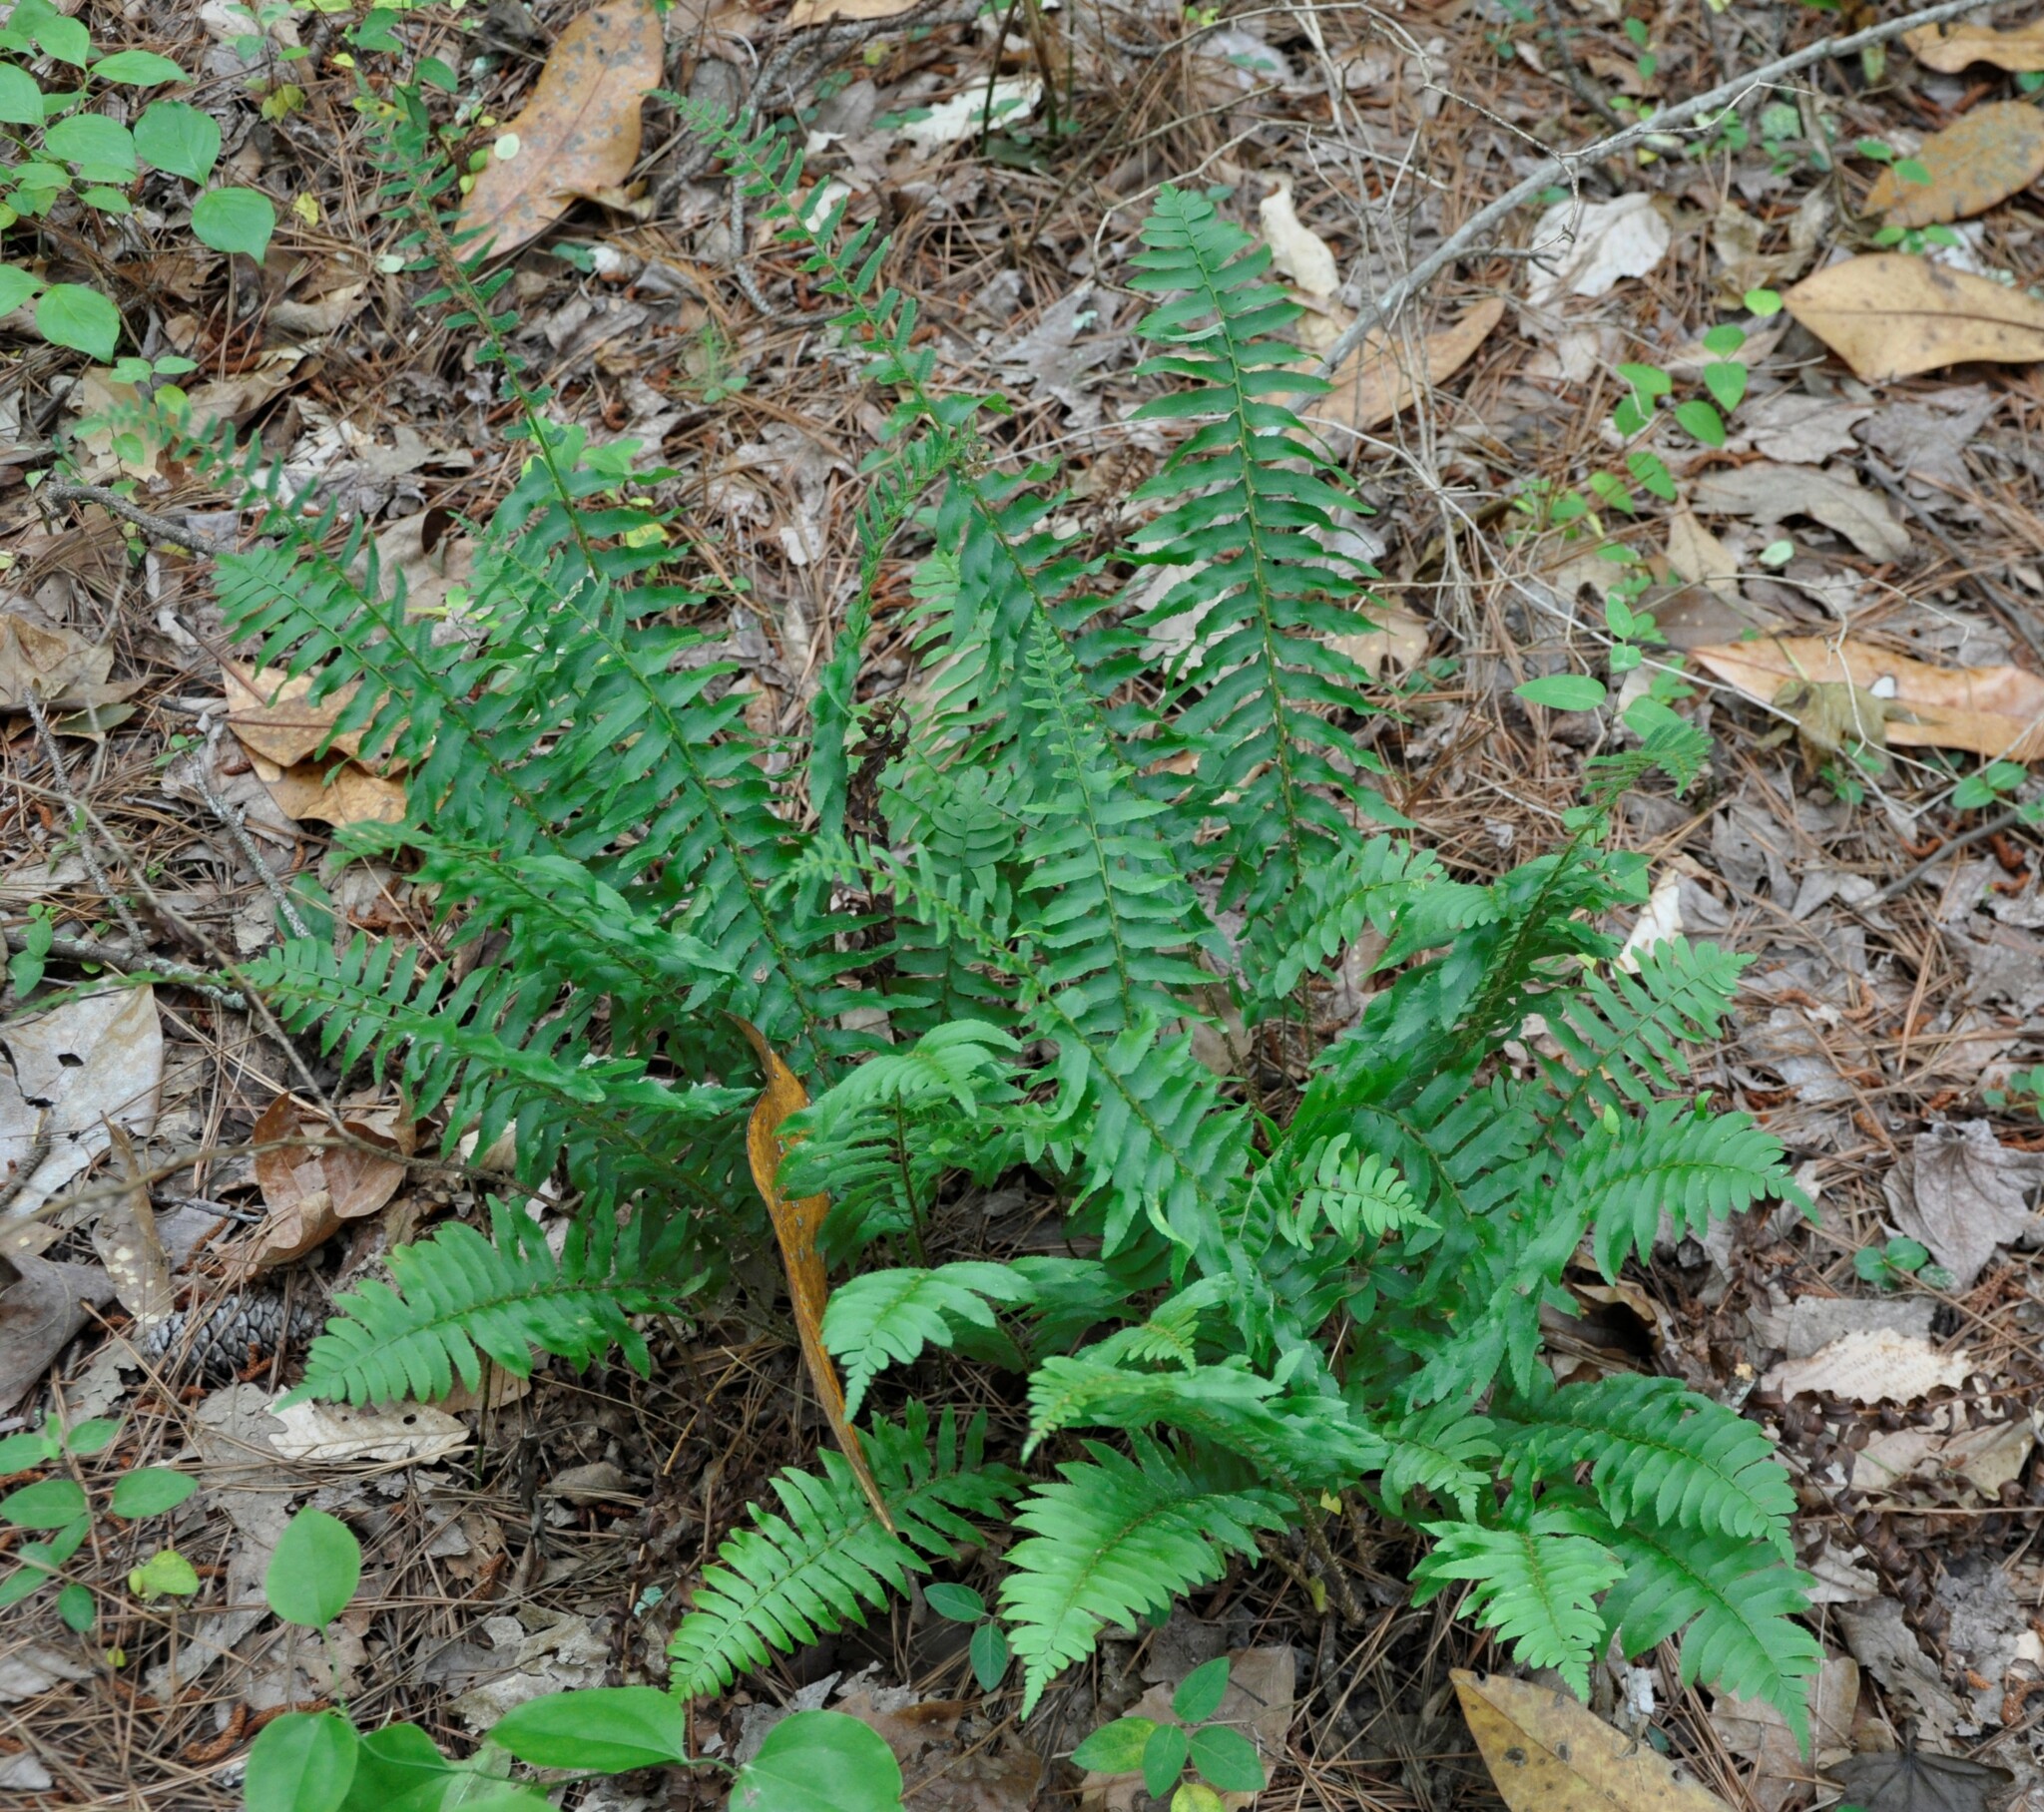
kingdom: Plantae
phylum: Tracheophyta
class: Polypodiopsida
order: Polypodiales
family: Dryopteridaceae
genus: Polystichum
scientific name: Polystichum acrostichoides
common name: Christmas fern
